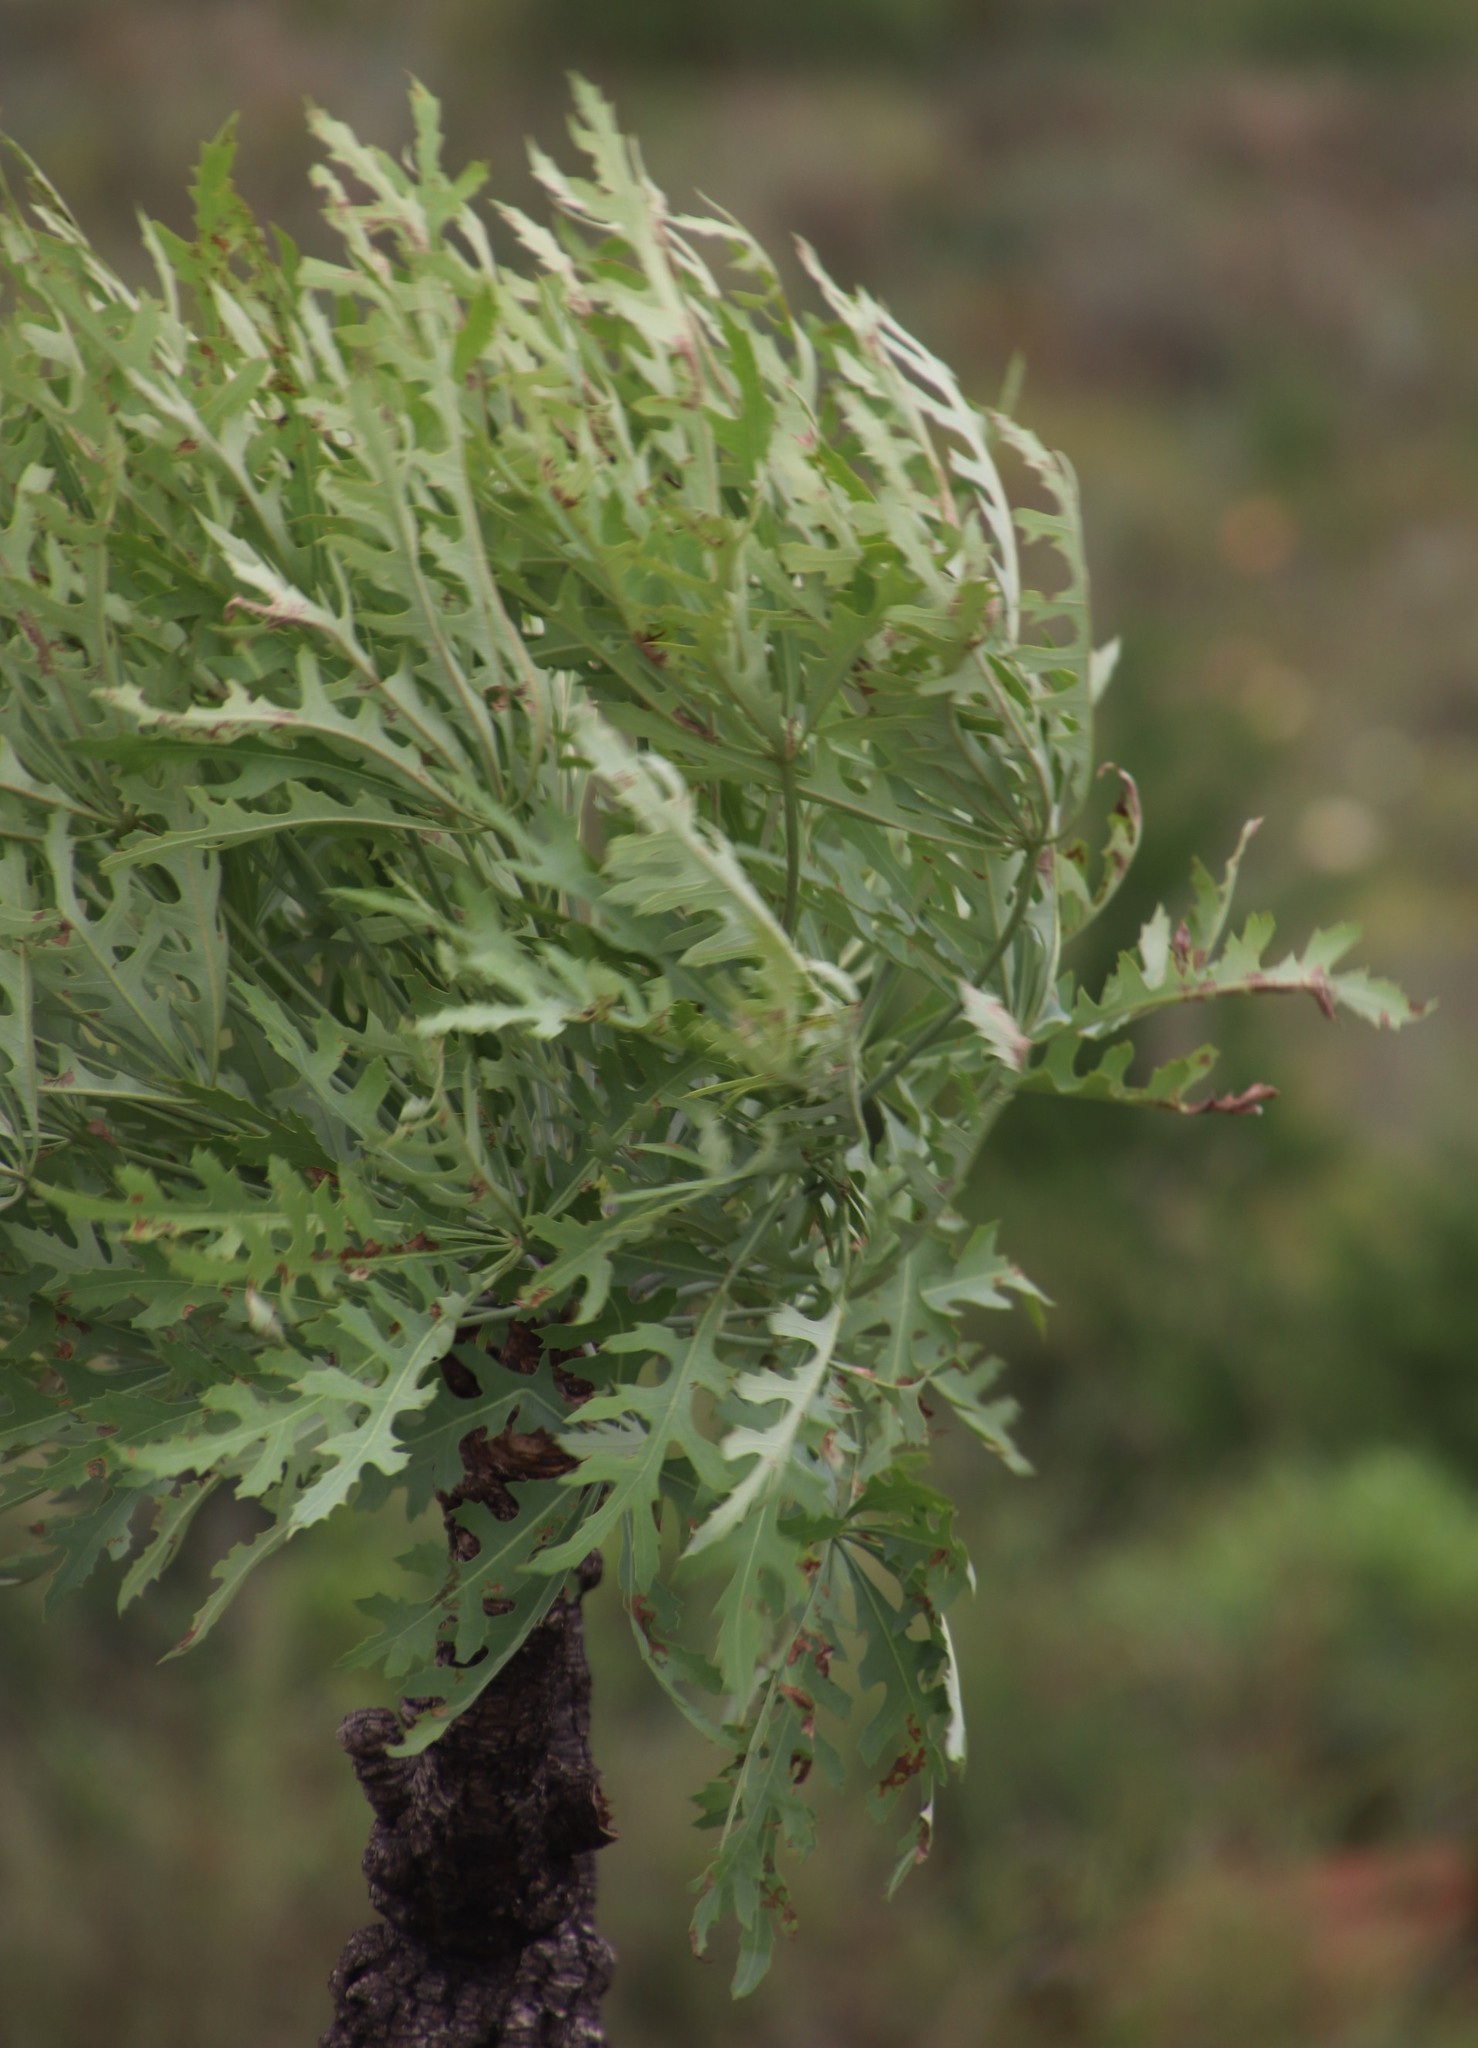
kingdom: Plantae
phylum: Tracheophyta
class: Magnoliopsida
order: Apiales
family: Araliaceae
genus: Cussonia
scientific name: Cussonia paniculata
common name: Cabbagetree
